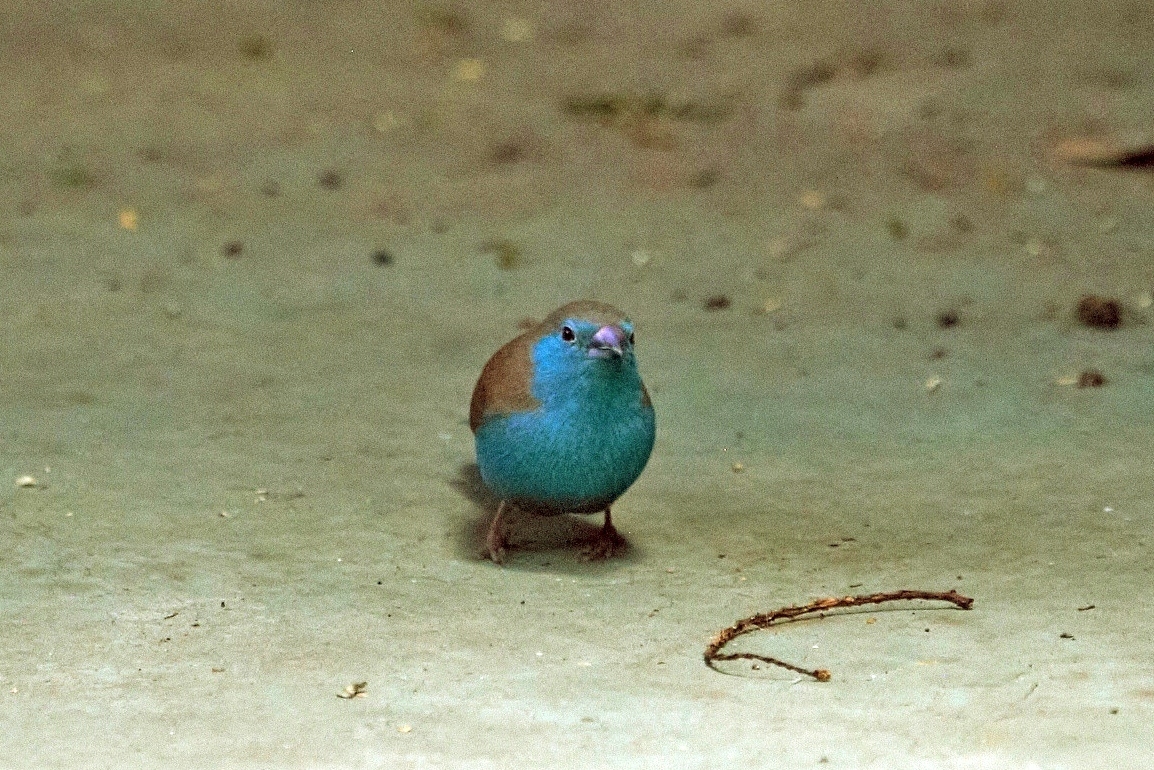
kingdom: Animalia
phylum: Chordata
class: Aves
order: Passeriformes
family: Estrildidae
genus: Uraeginthus
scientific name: Uraeginthus angolensis
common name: Blue waxbill
